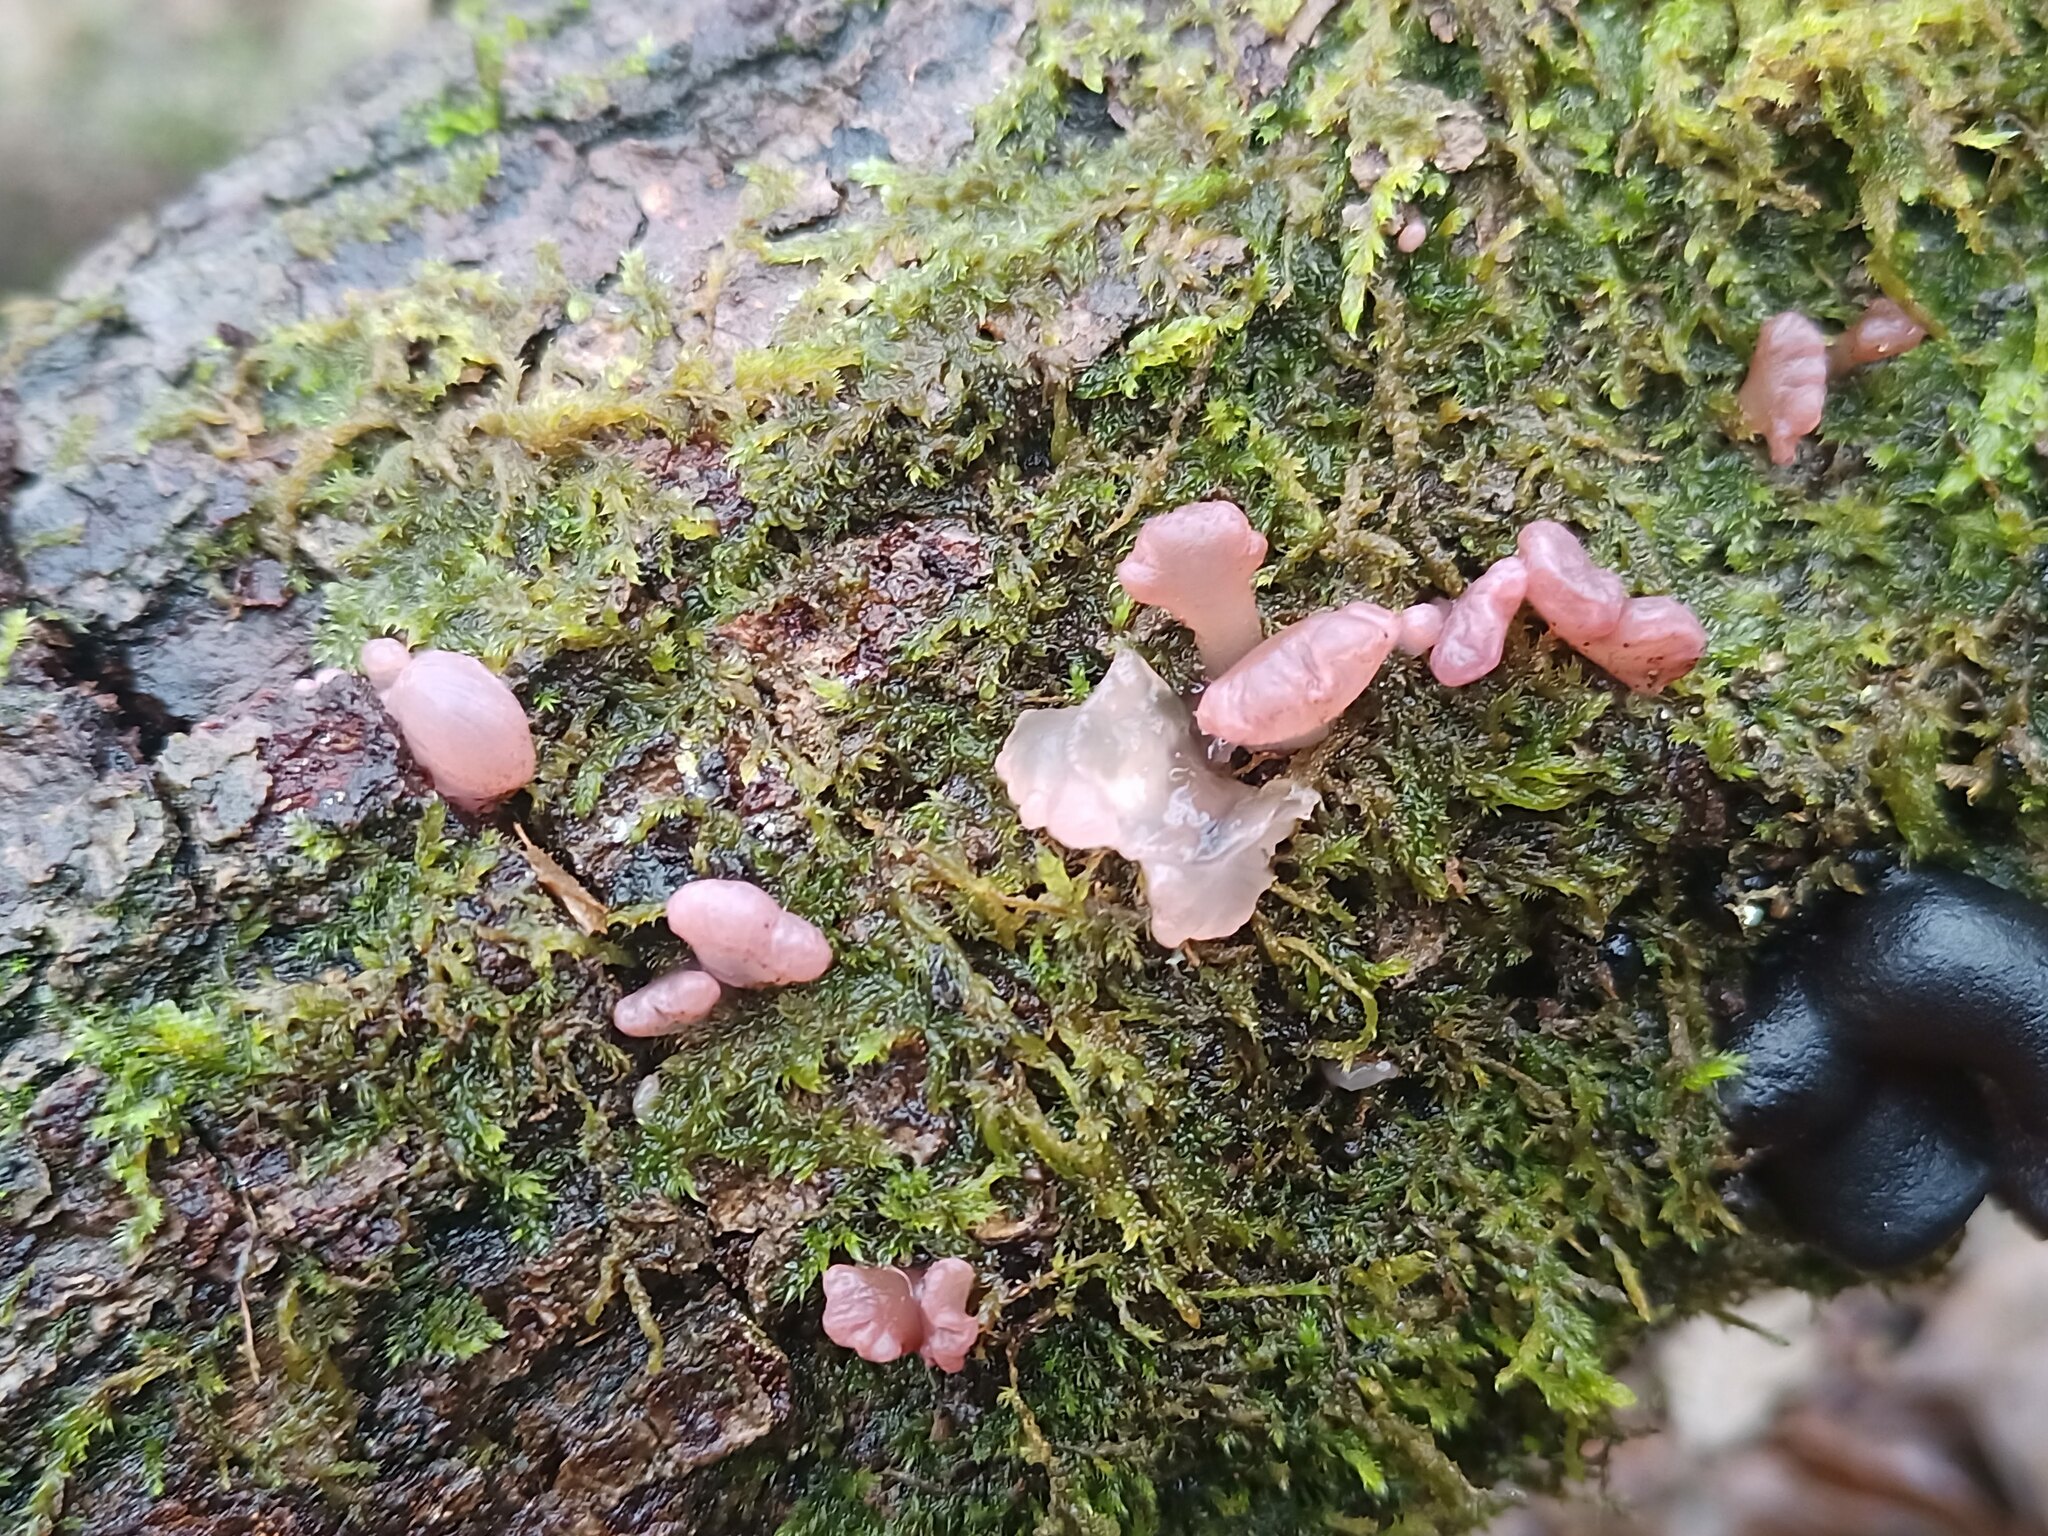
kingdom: Fungi
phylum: Ascomycota
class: Leotiomycetes
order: Helotiales
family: Gelatinodiscaceae
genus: Ascocoryne
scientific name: Ascocoryne sarcoides
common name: Purple jellydisc
